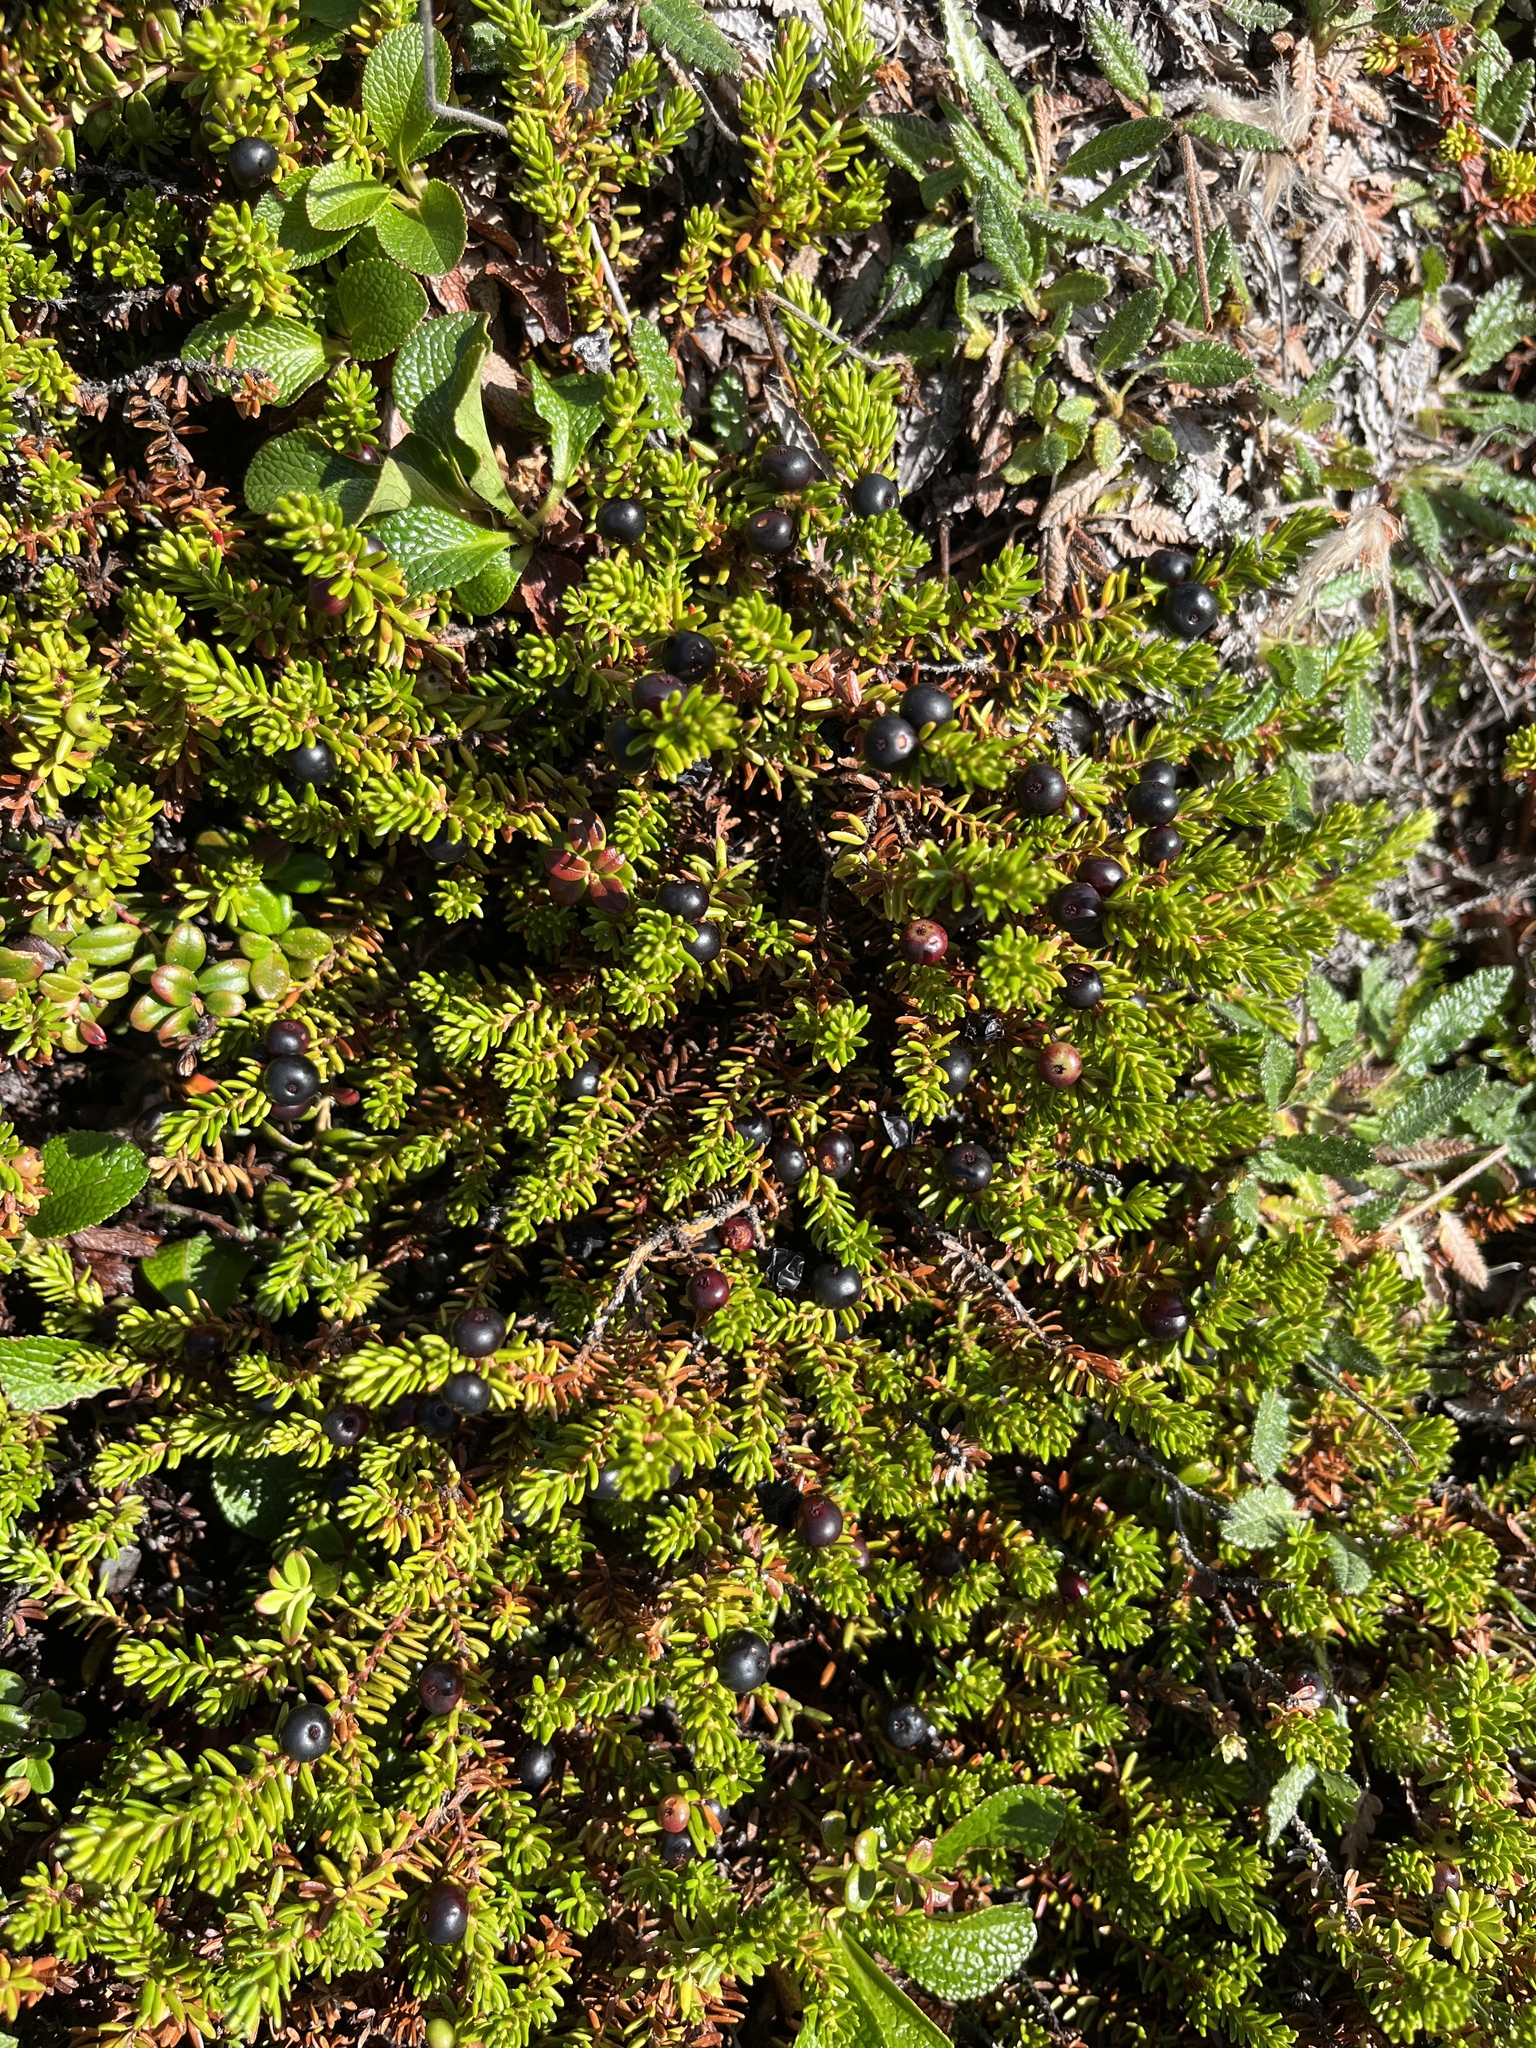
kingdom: Plantae
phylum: Tracheophyta
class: Magnoliopsida
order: Ericales
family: Ericaceae
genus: Empetrum
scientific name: Empetrum nigrum
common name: Black crowberry
